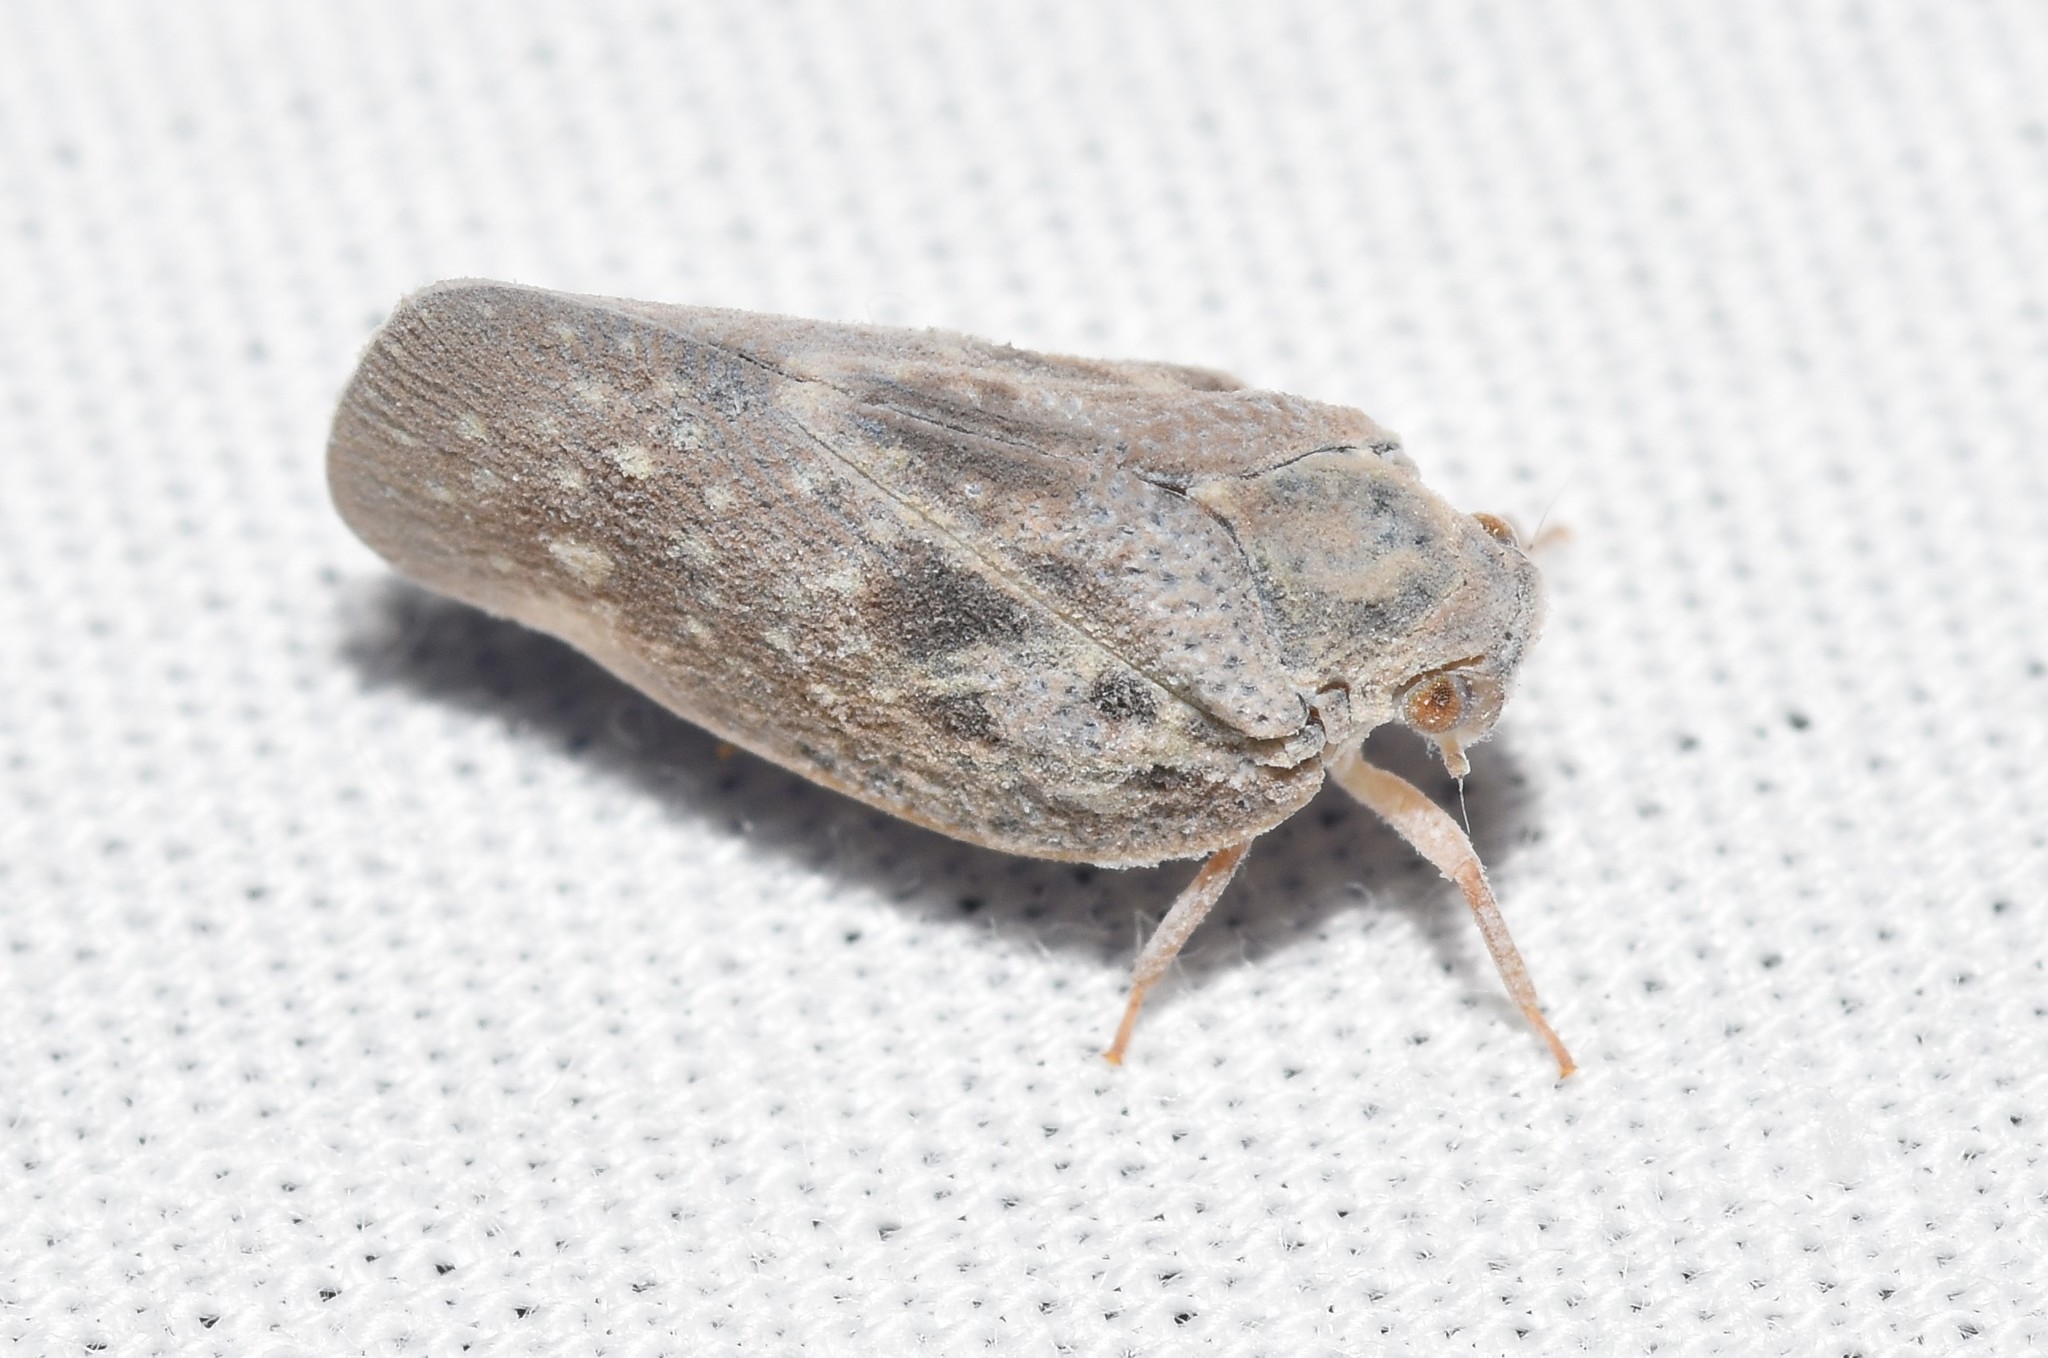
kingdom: Animalia
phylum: Arthropoda
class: Insecta
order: Hemiptera
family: Flatidae
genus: Metcalfa
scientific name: Metcalfa pruinosa
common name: Citrus flatid planthopper
